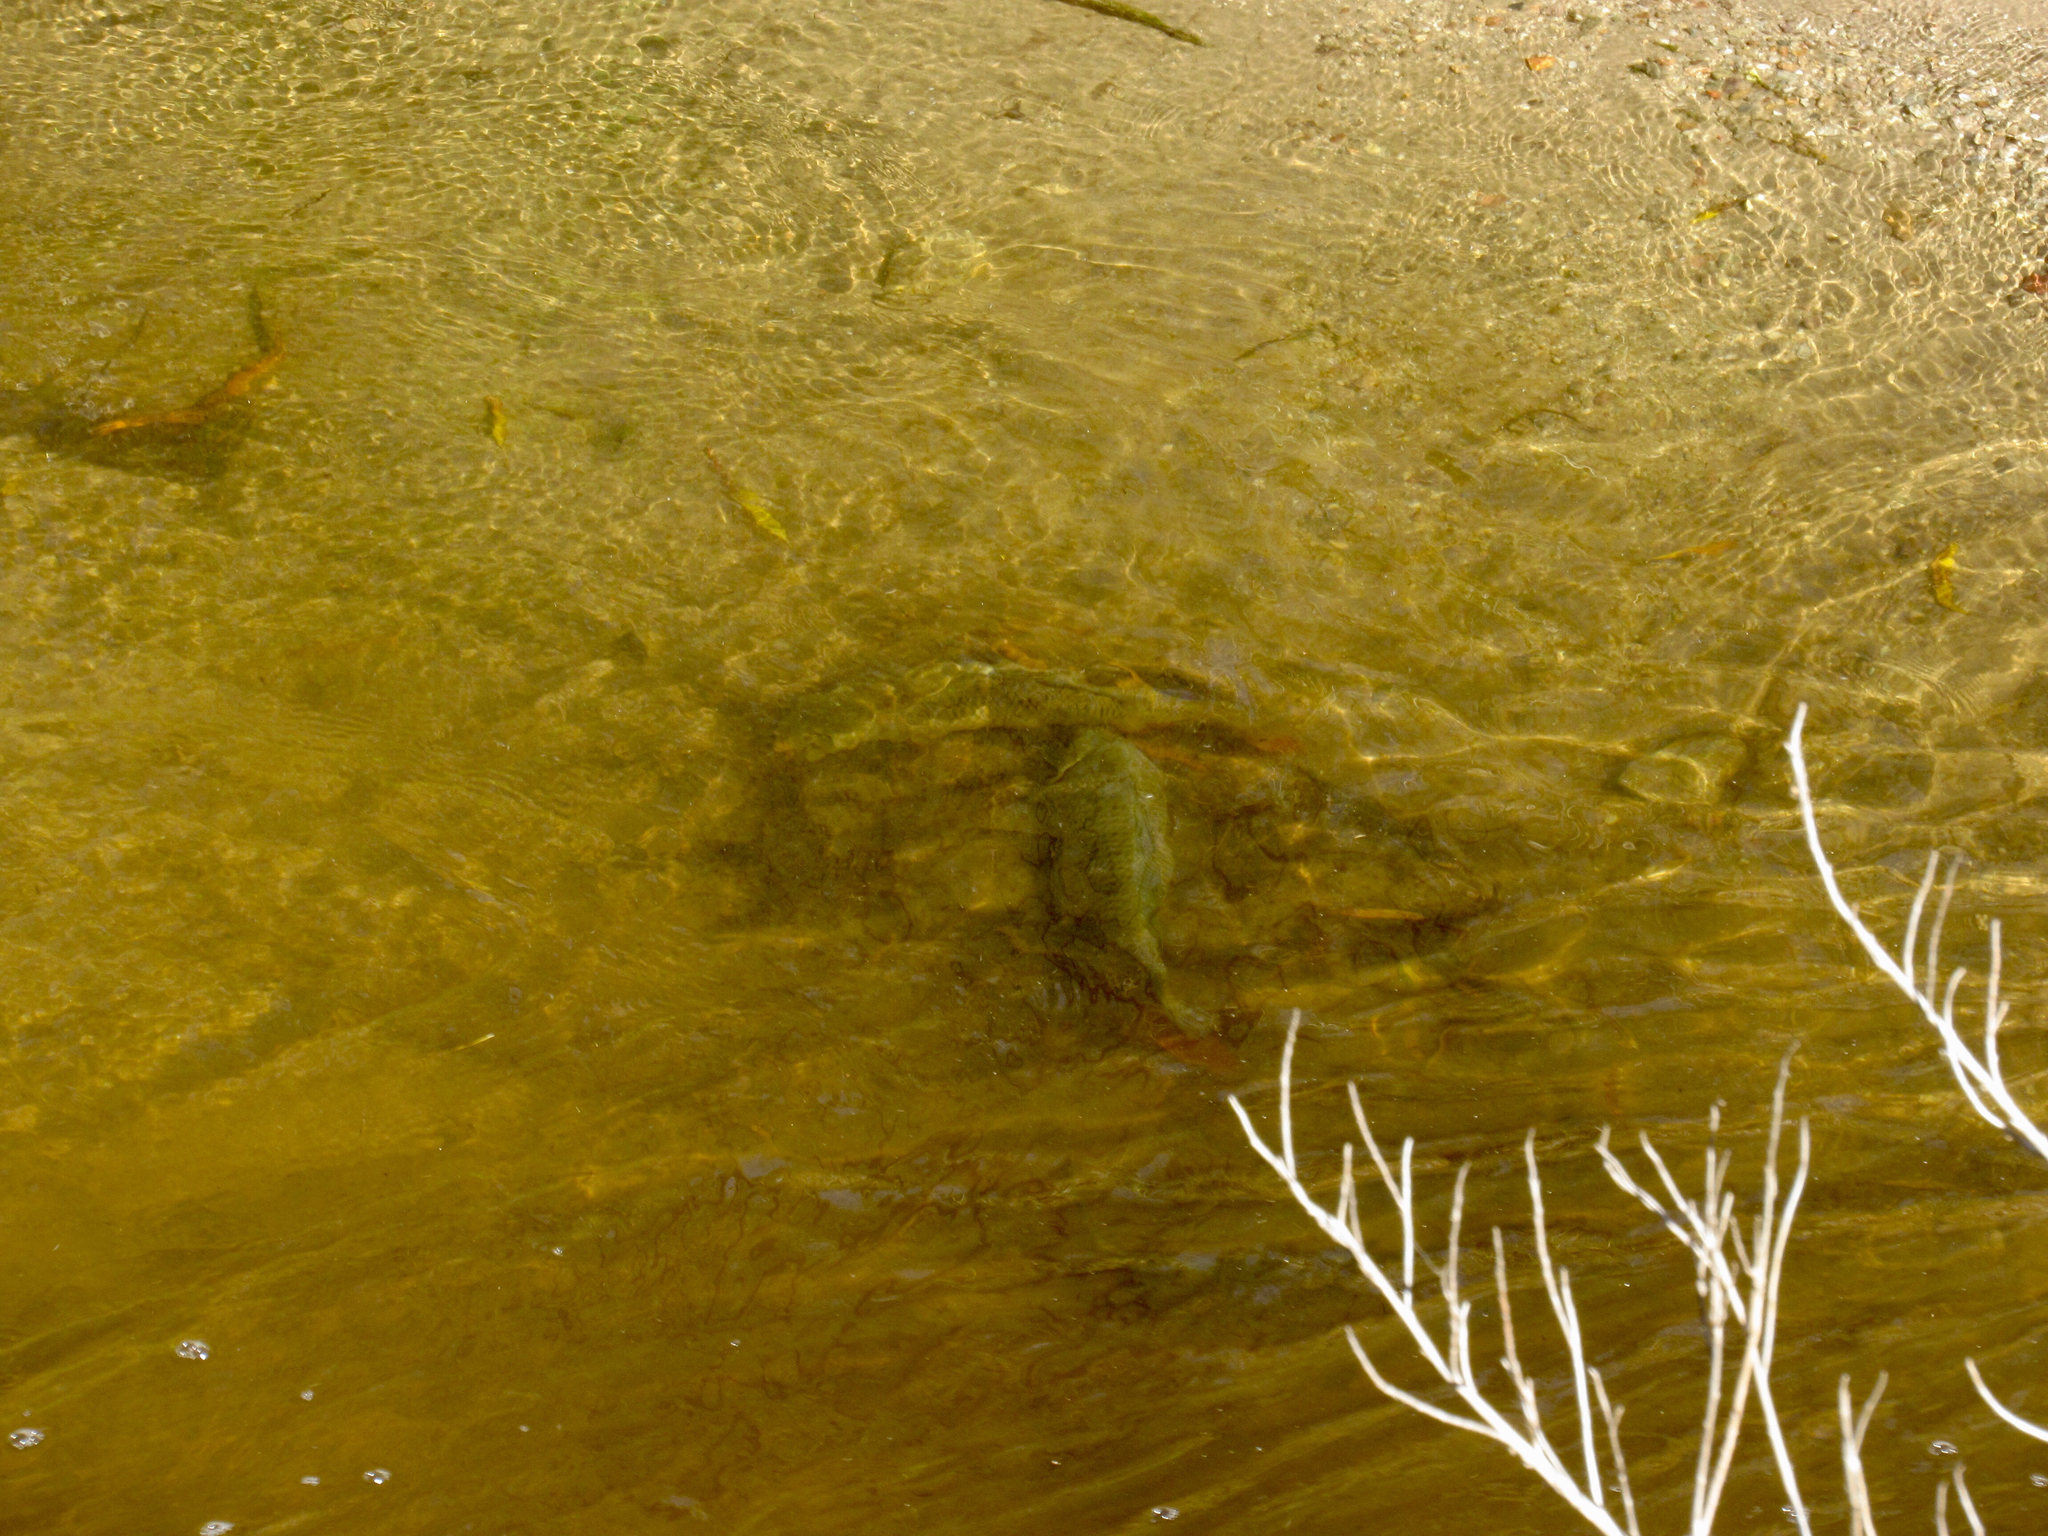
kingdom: Animalia
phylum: Chordata
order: Cypriniformes
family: Cyprinidae
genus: Cyprinus
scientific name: Cyprinus carpio
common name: Common carp
